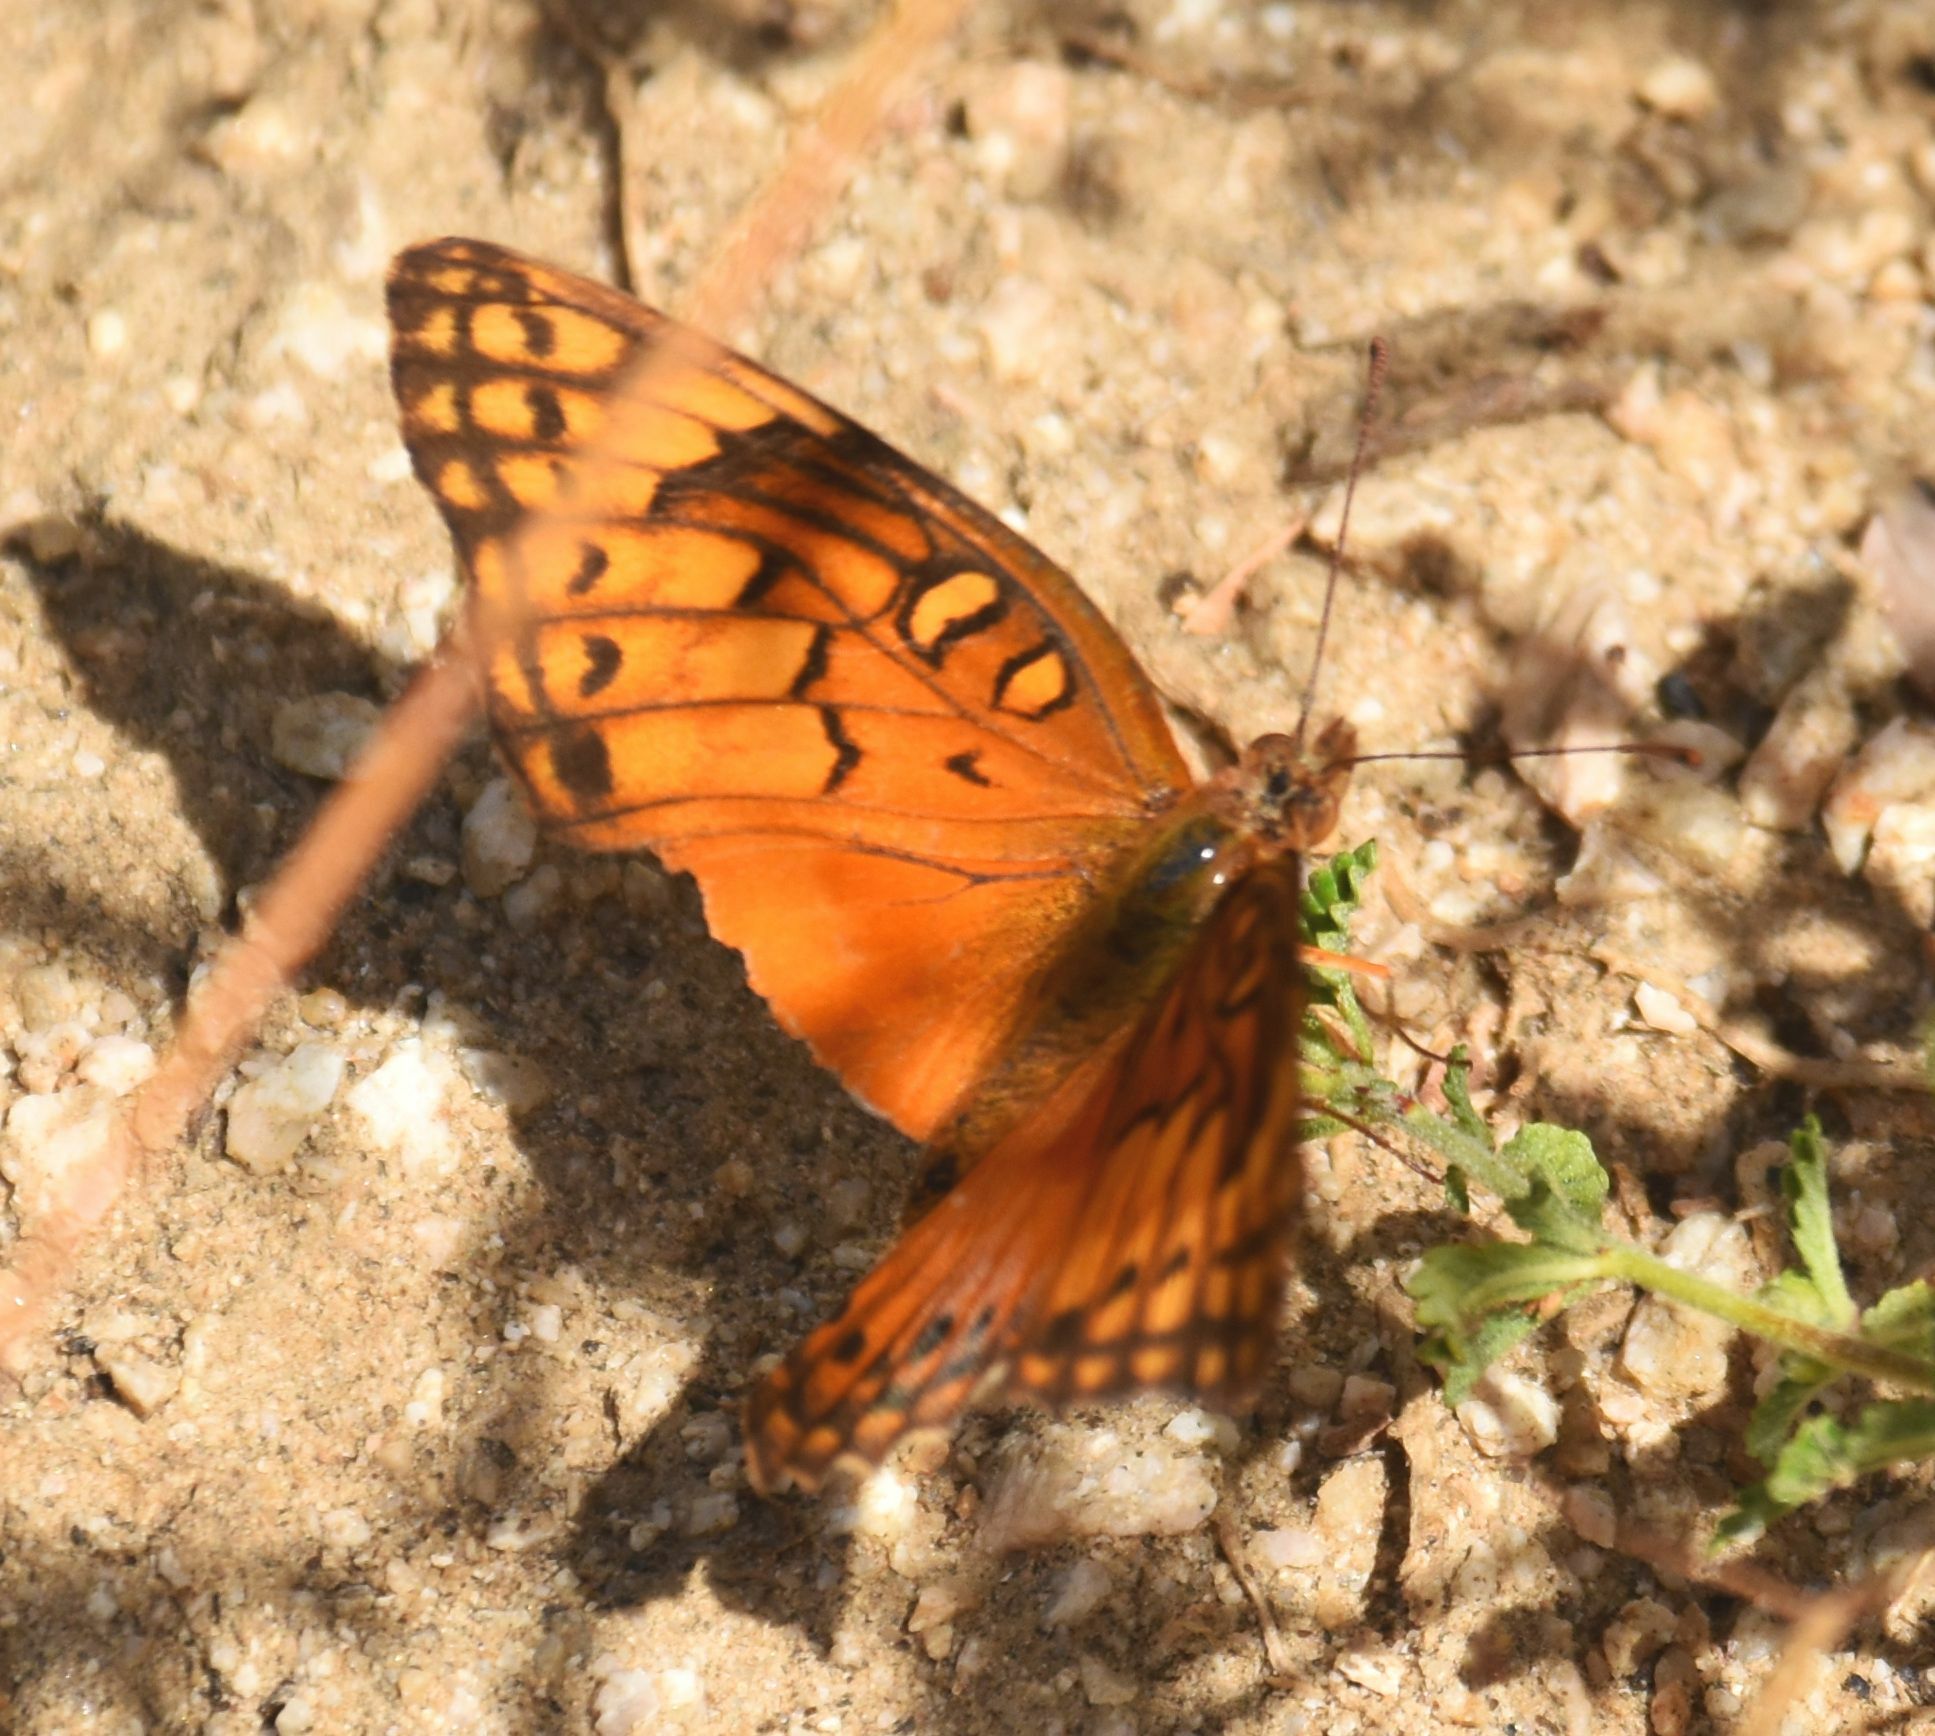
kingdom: Animalia
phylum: Arthropoda
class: Insecta
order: Lepidoptera
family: Nymphalidae
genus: Euptoieta
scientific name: Euptoieta hegesia
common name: Mexican fritillary
